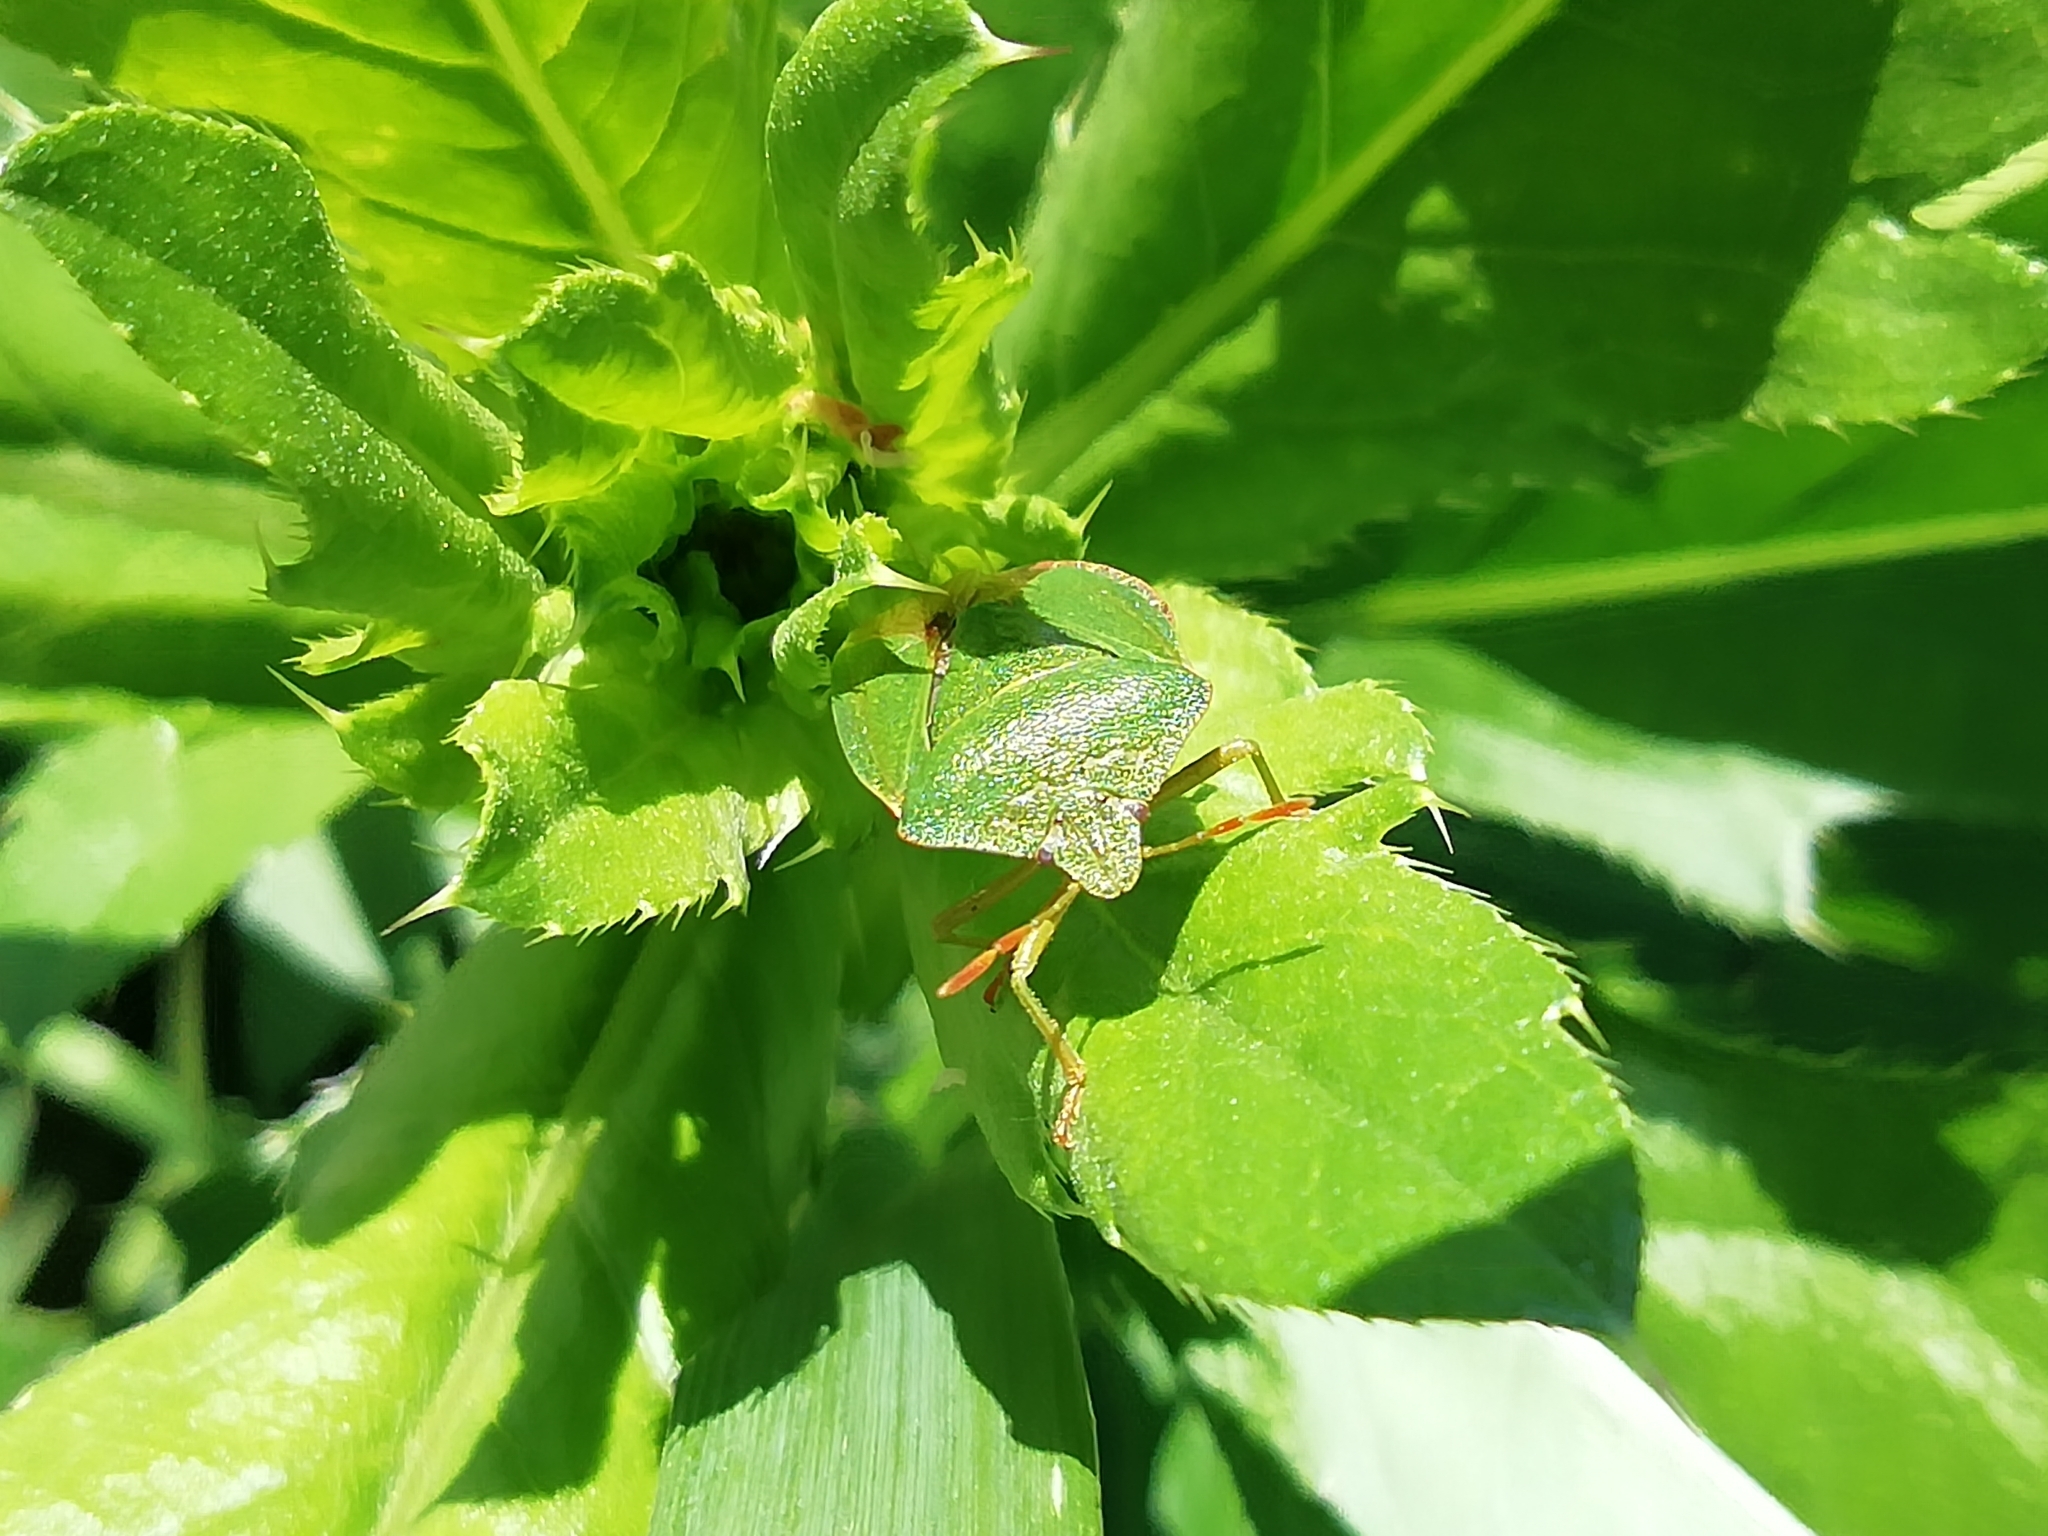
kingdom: Animalia
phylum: Arthropoda
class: Insecta
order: Hemiptera
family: Pentatomidae
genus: Palomena
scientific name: Palomena prasina
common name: Green shieldbug
